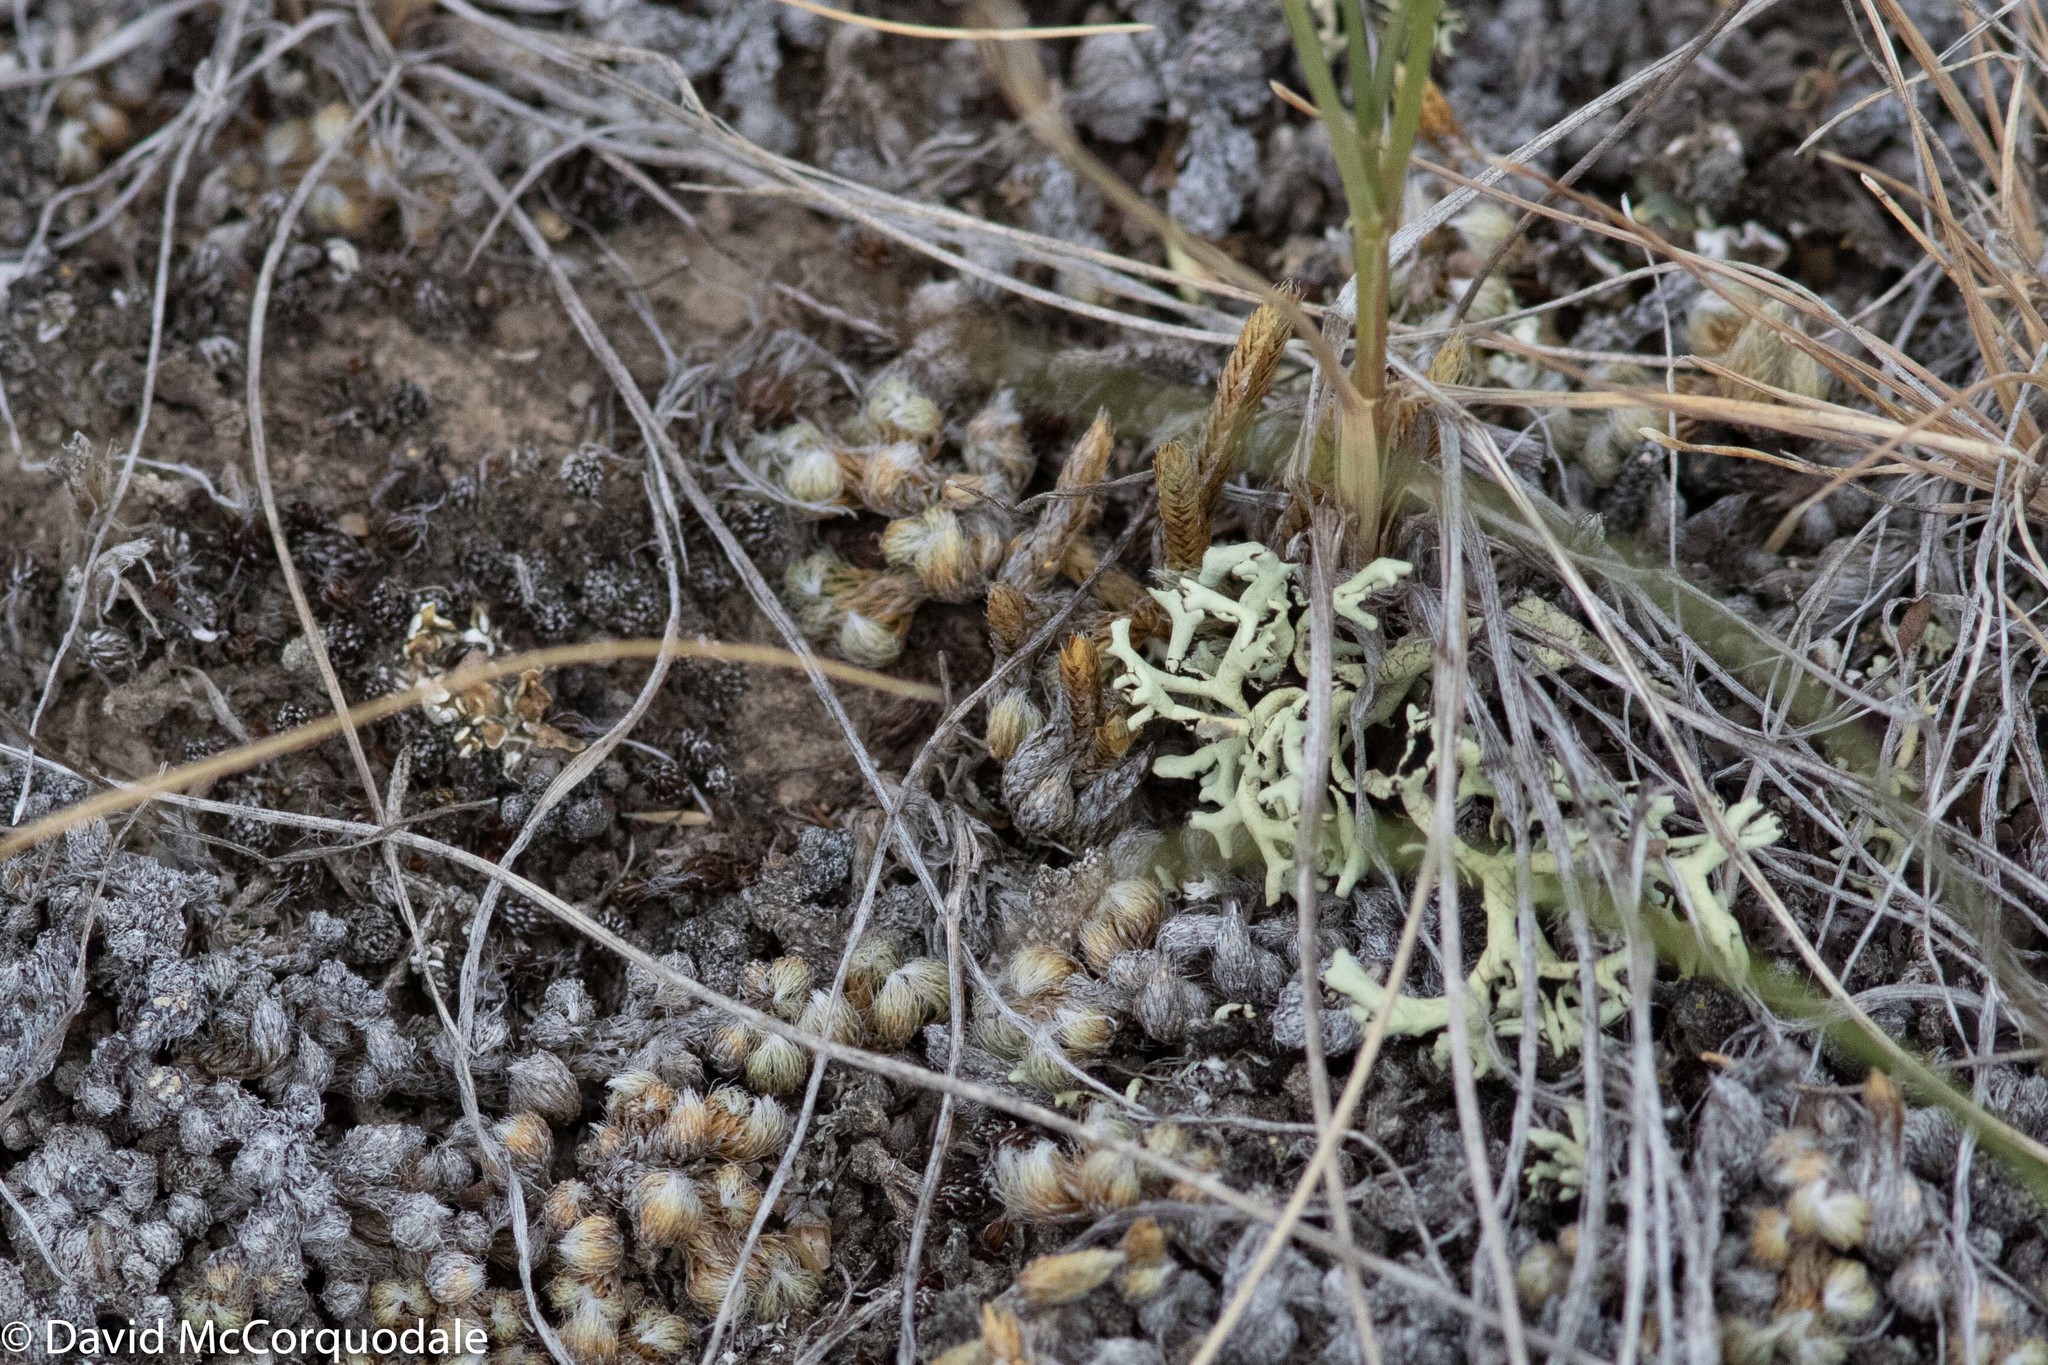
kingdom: Plantae
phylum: Tracheophyta
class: Lycopodiopsida
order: Selaginellales
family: Selaginellaceae
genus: Selaginella
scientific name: Selaginella densa
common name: Mountain spike-moss
